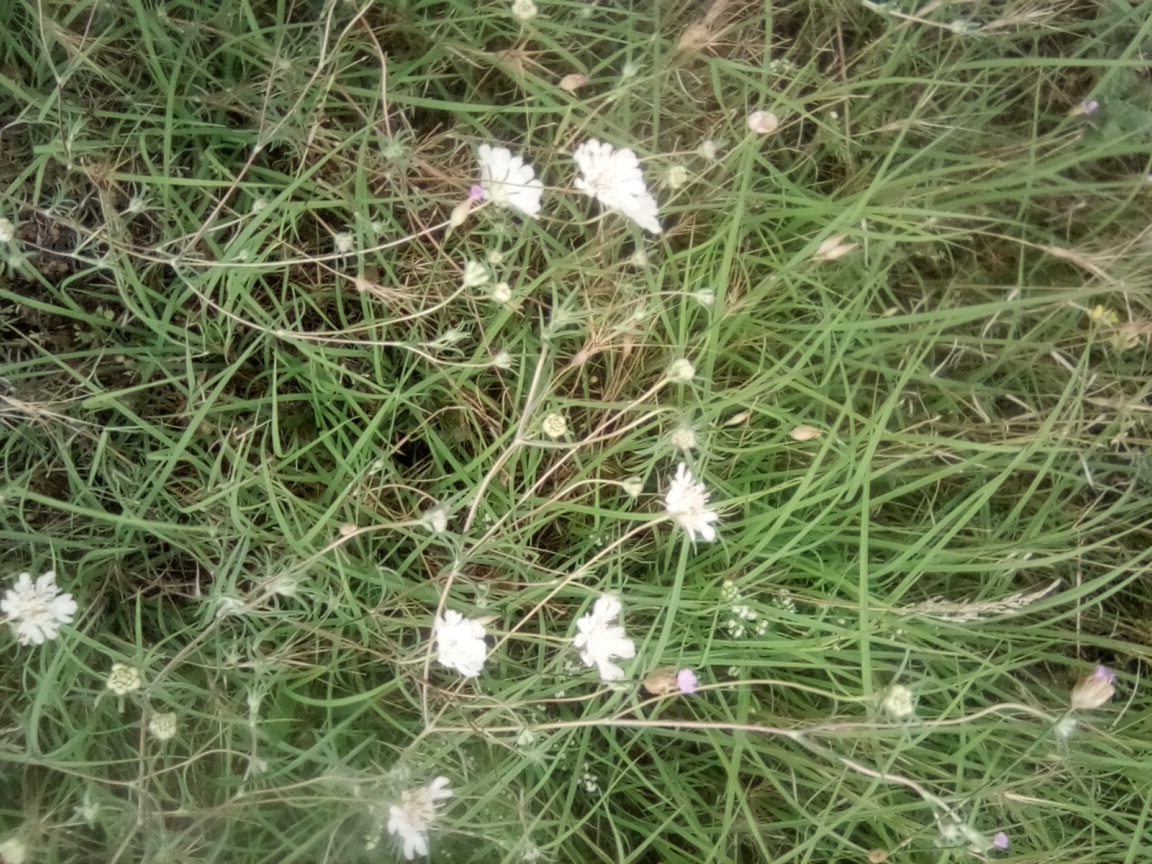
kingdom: Plantae
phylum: Tracheophyta
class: Magnoliopsida
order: Dipsacales
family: Caprifoliaceae
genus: Scabiosa
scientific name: Scabiosa praemontana
